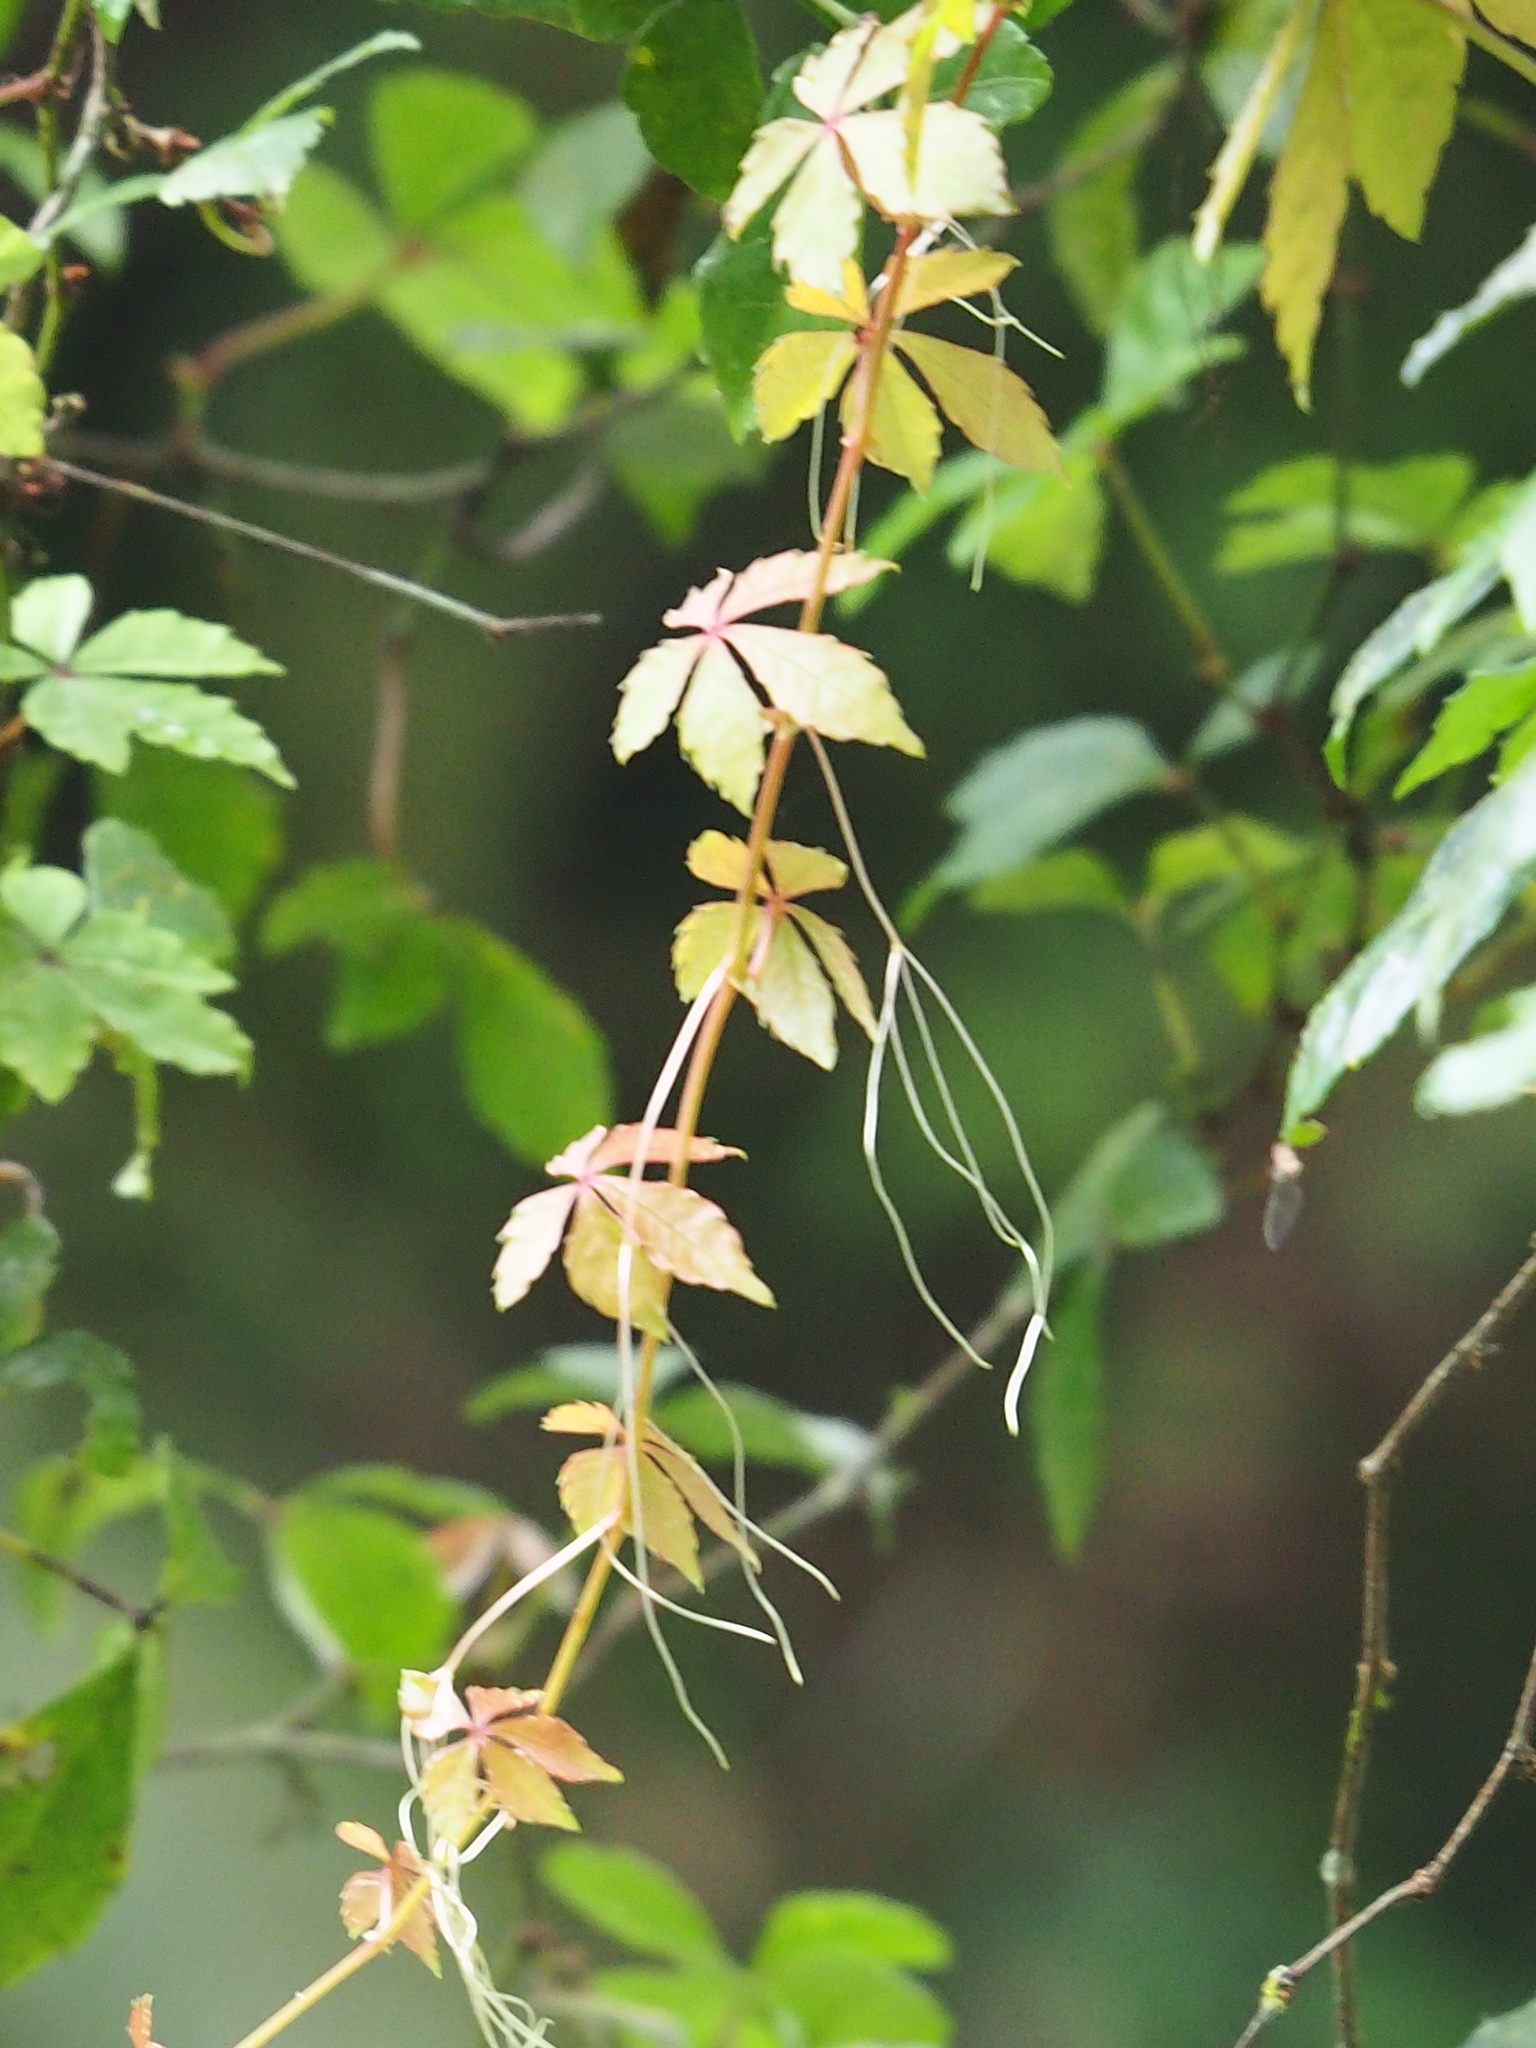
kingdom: Plantae
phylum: Tracheophyta
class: Magnoliopsida
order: Vitales
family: Vitaceae
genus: Tetrastigma
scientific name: Tetrastigma obtectum
